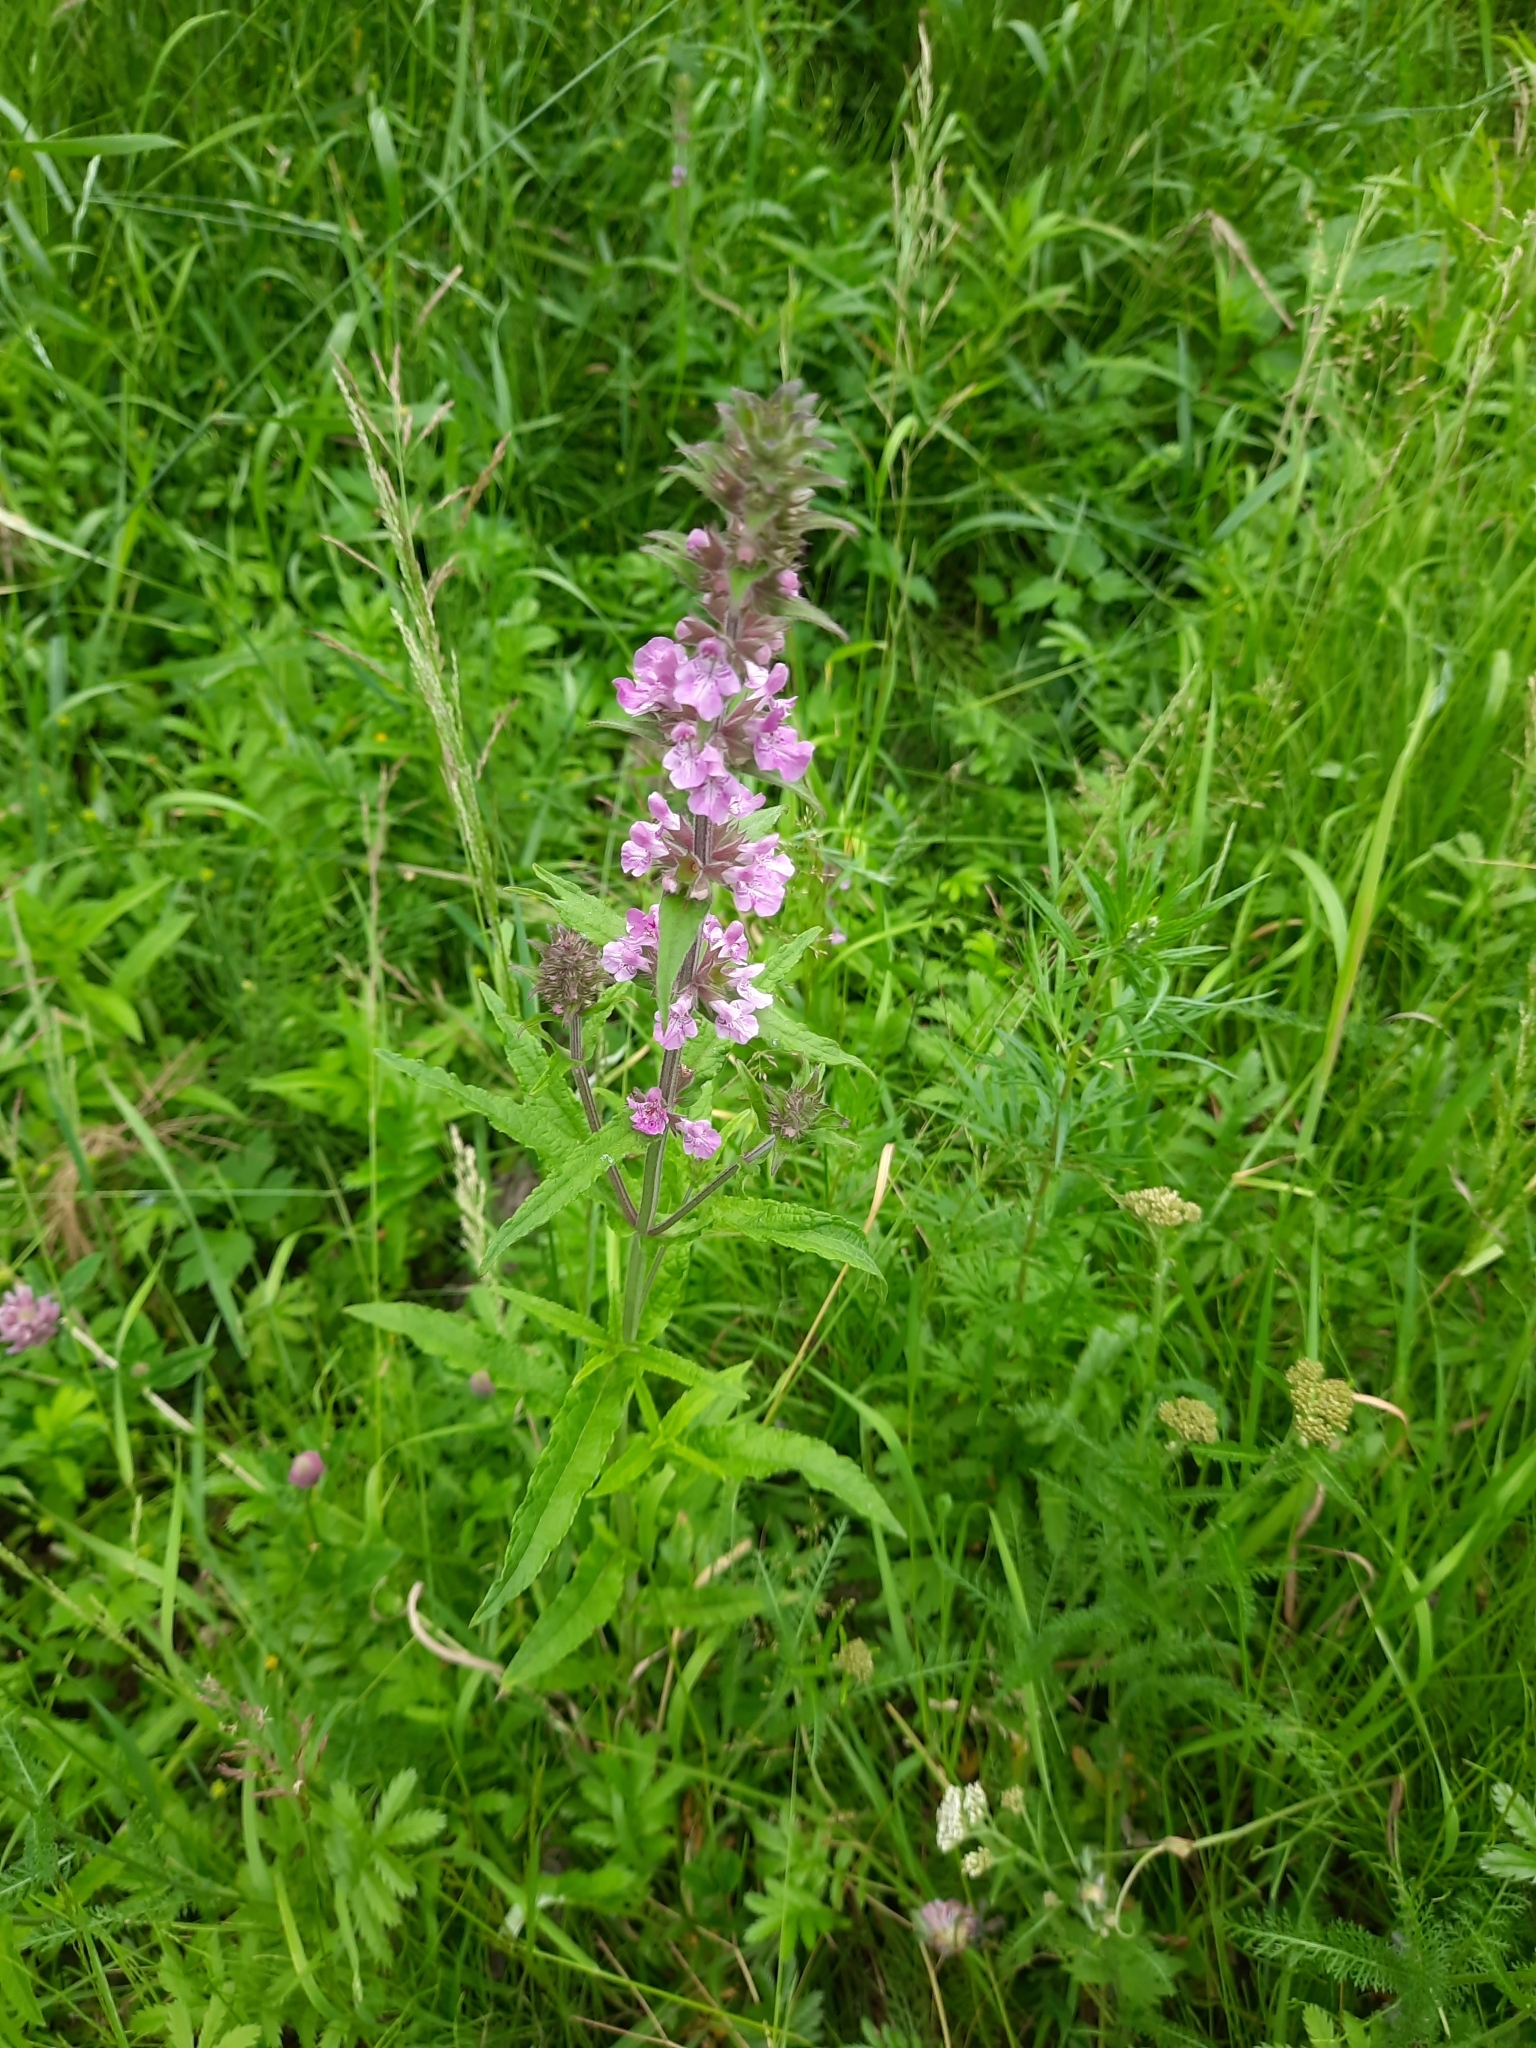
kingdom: Plantae
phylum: Tracheophyta
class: Magnoliopsida
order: Lamiales
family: Lamiaceae
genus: Stachys
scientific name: Stachys palustris
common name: Marsh woundwort
